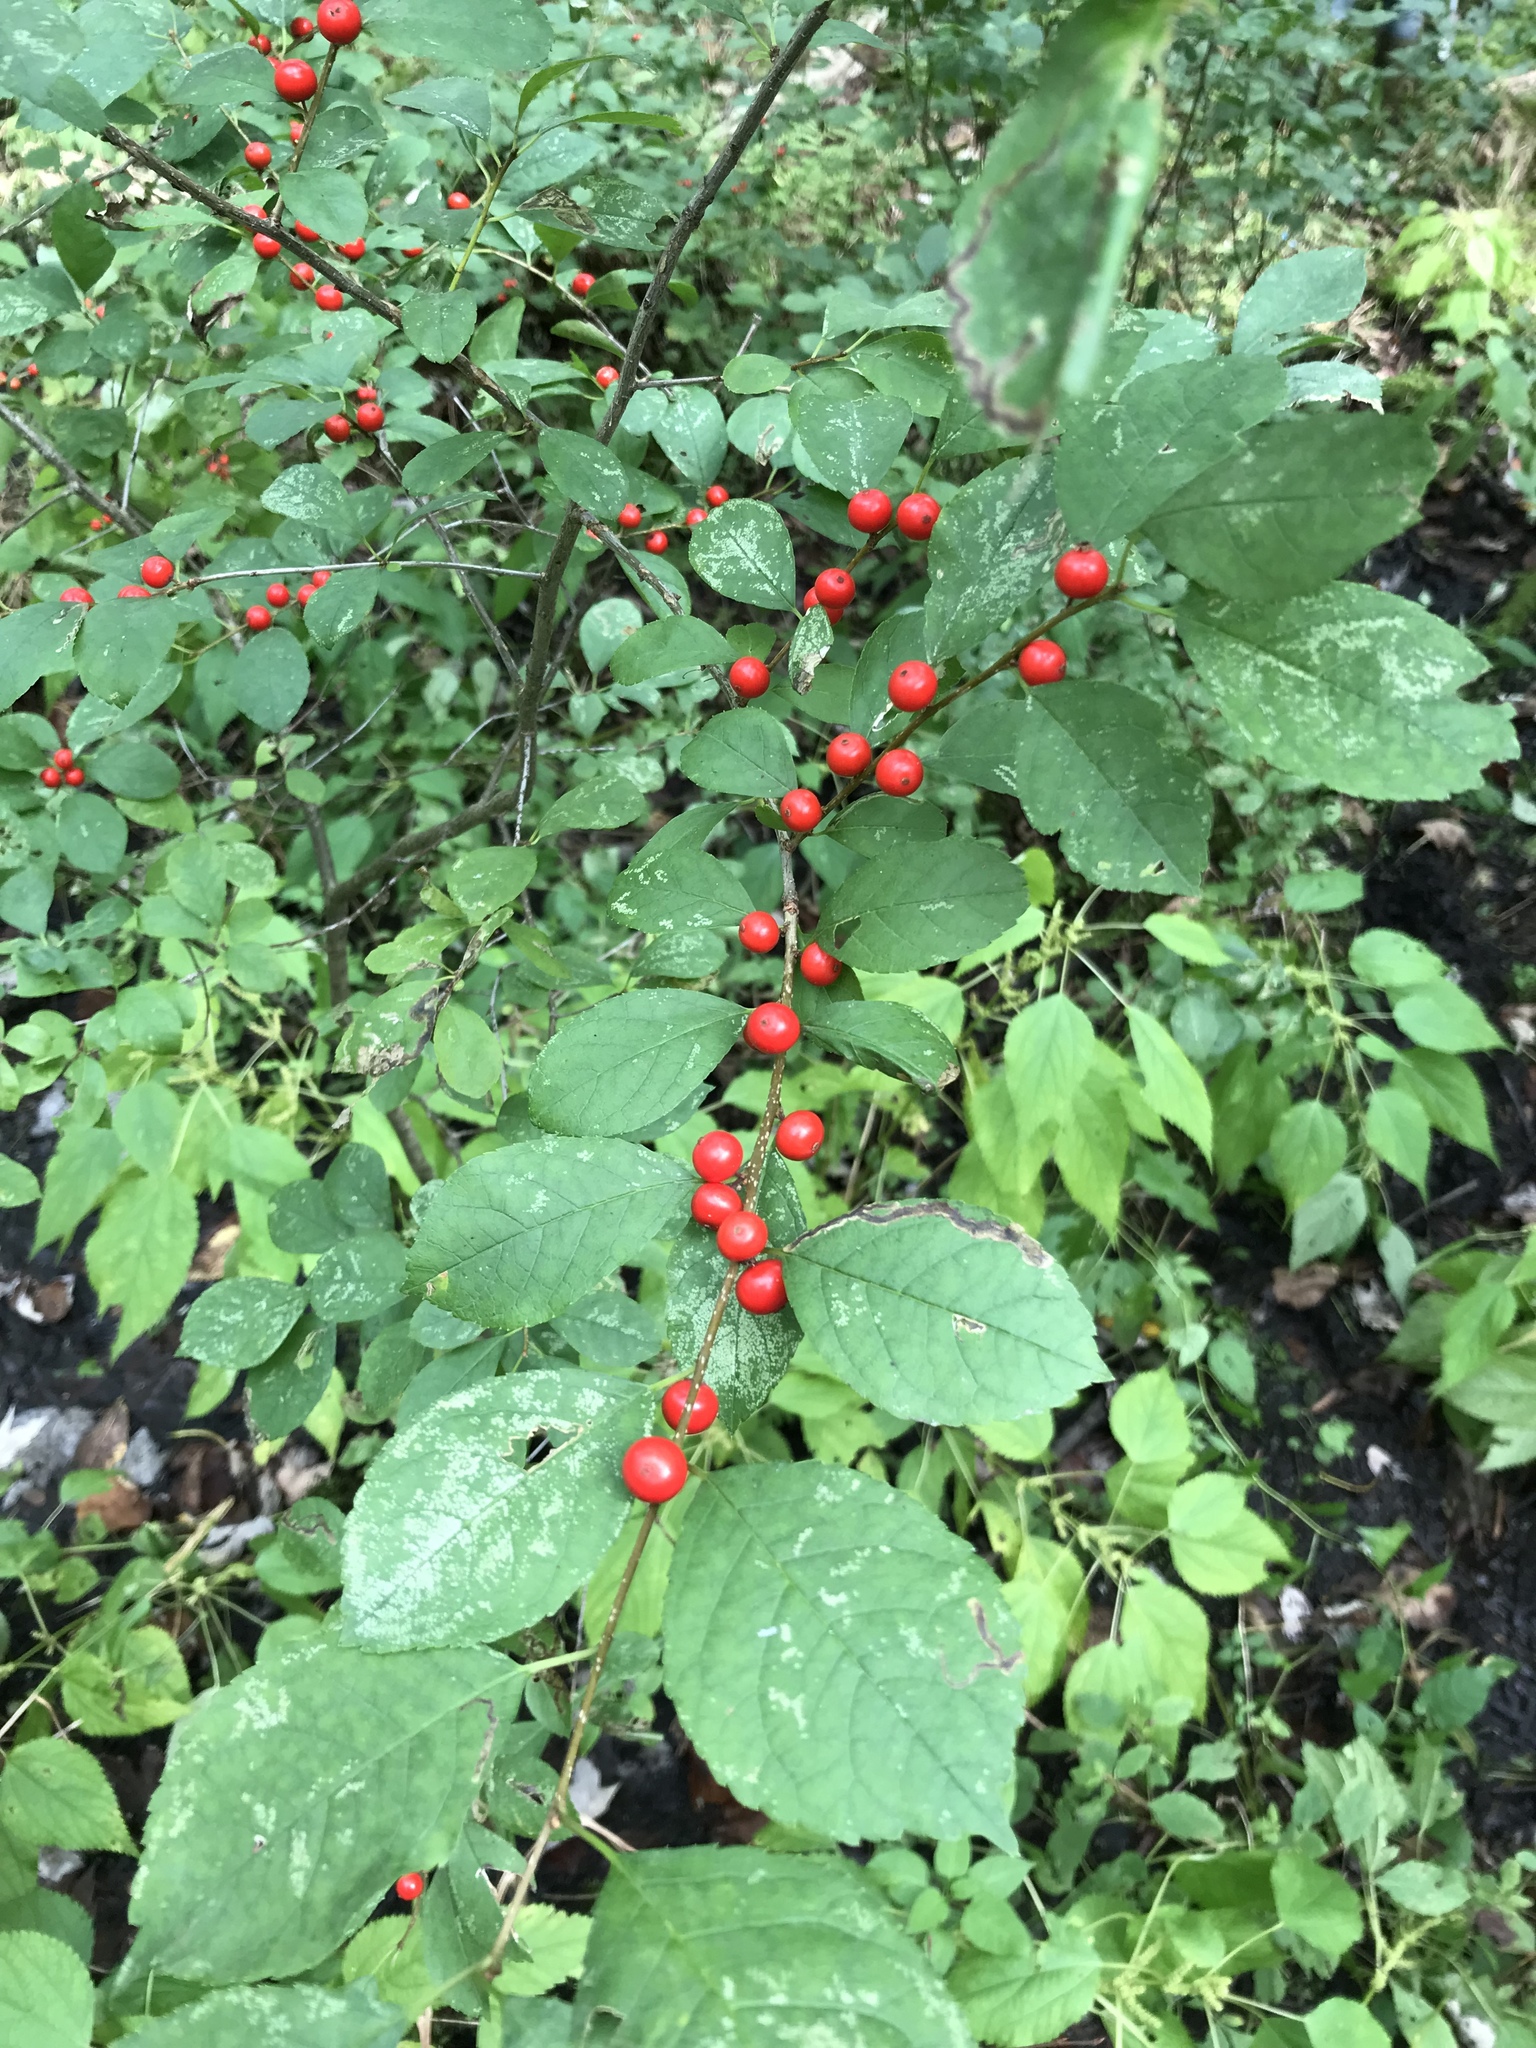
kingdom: Plantae
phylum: Tracheophyta
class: Magnoliopsida
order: Aquifoliales
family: Aquifoliaceae
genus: Ilex
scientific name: Ilex verticillata
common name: Virginia winterberry
